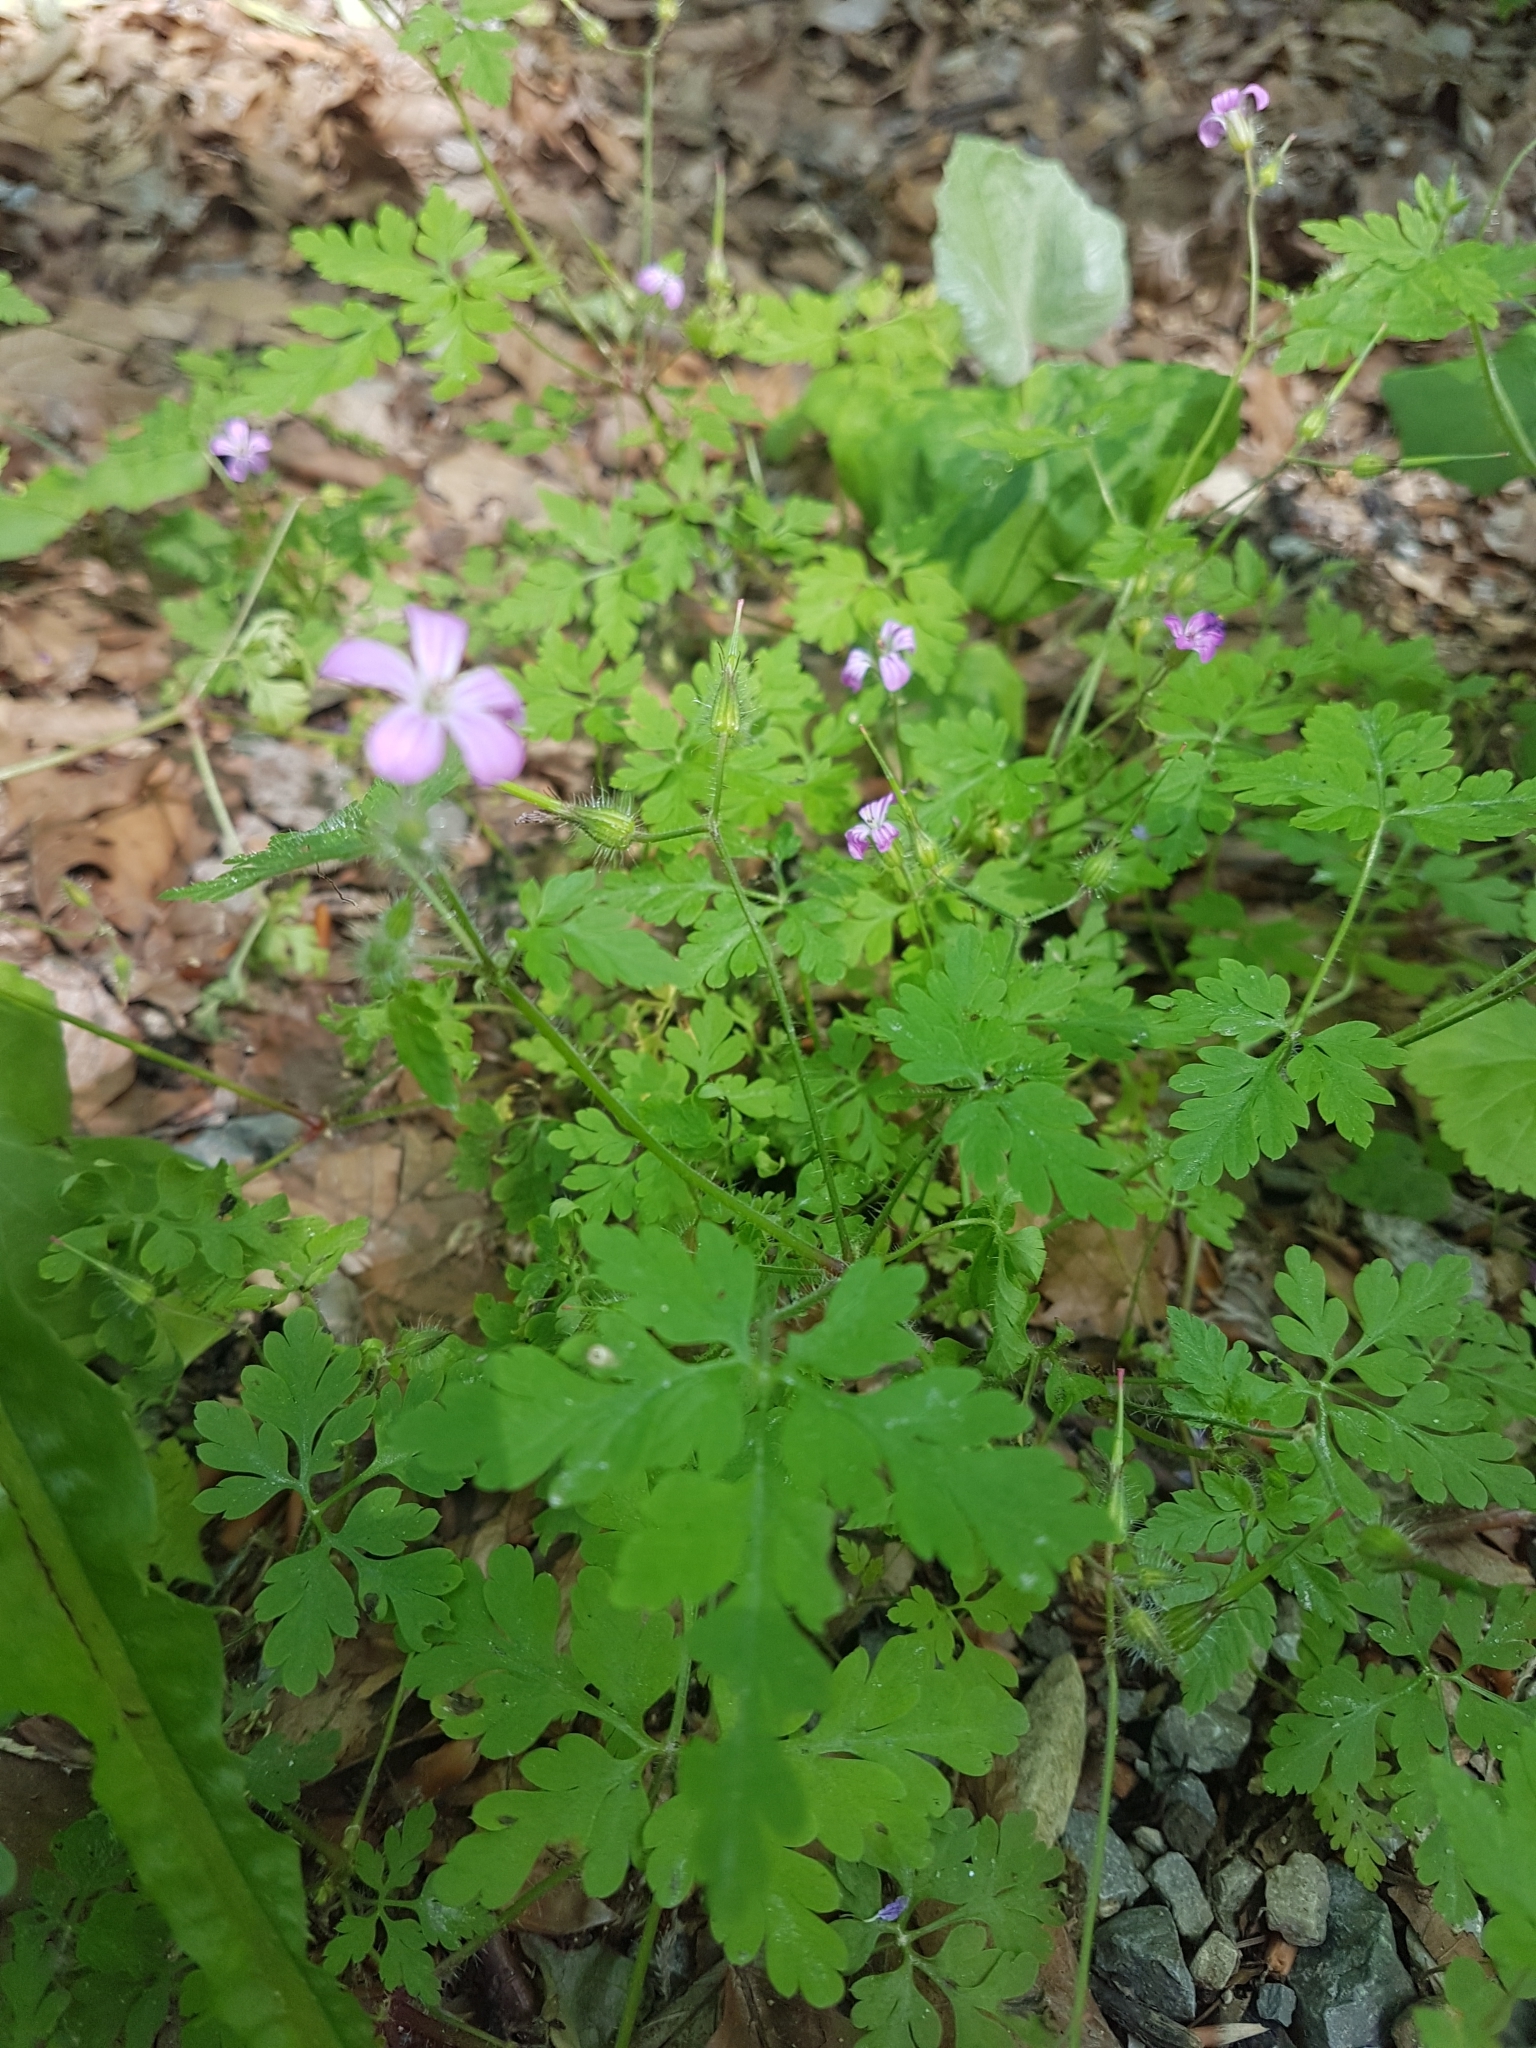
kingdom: Plantae
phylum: Tracheophyta
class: Magnoliopsida
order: Geraniales
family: Geraniaceae
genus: Geranium
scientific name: Geranium robertianum
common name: Herb-robert
